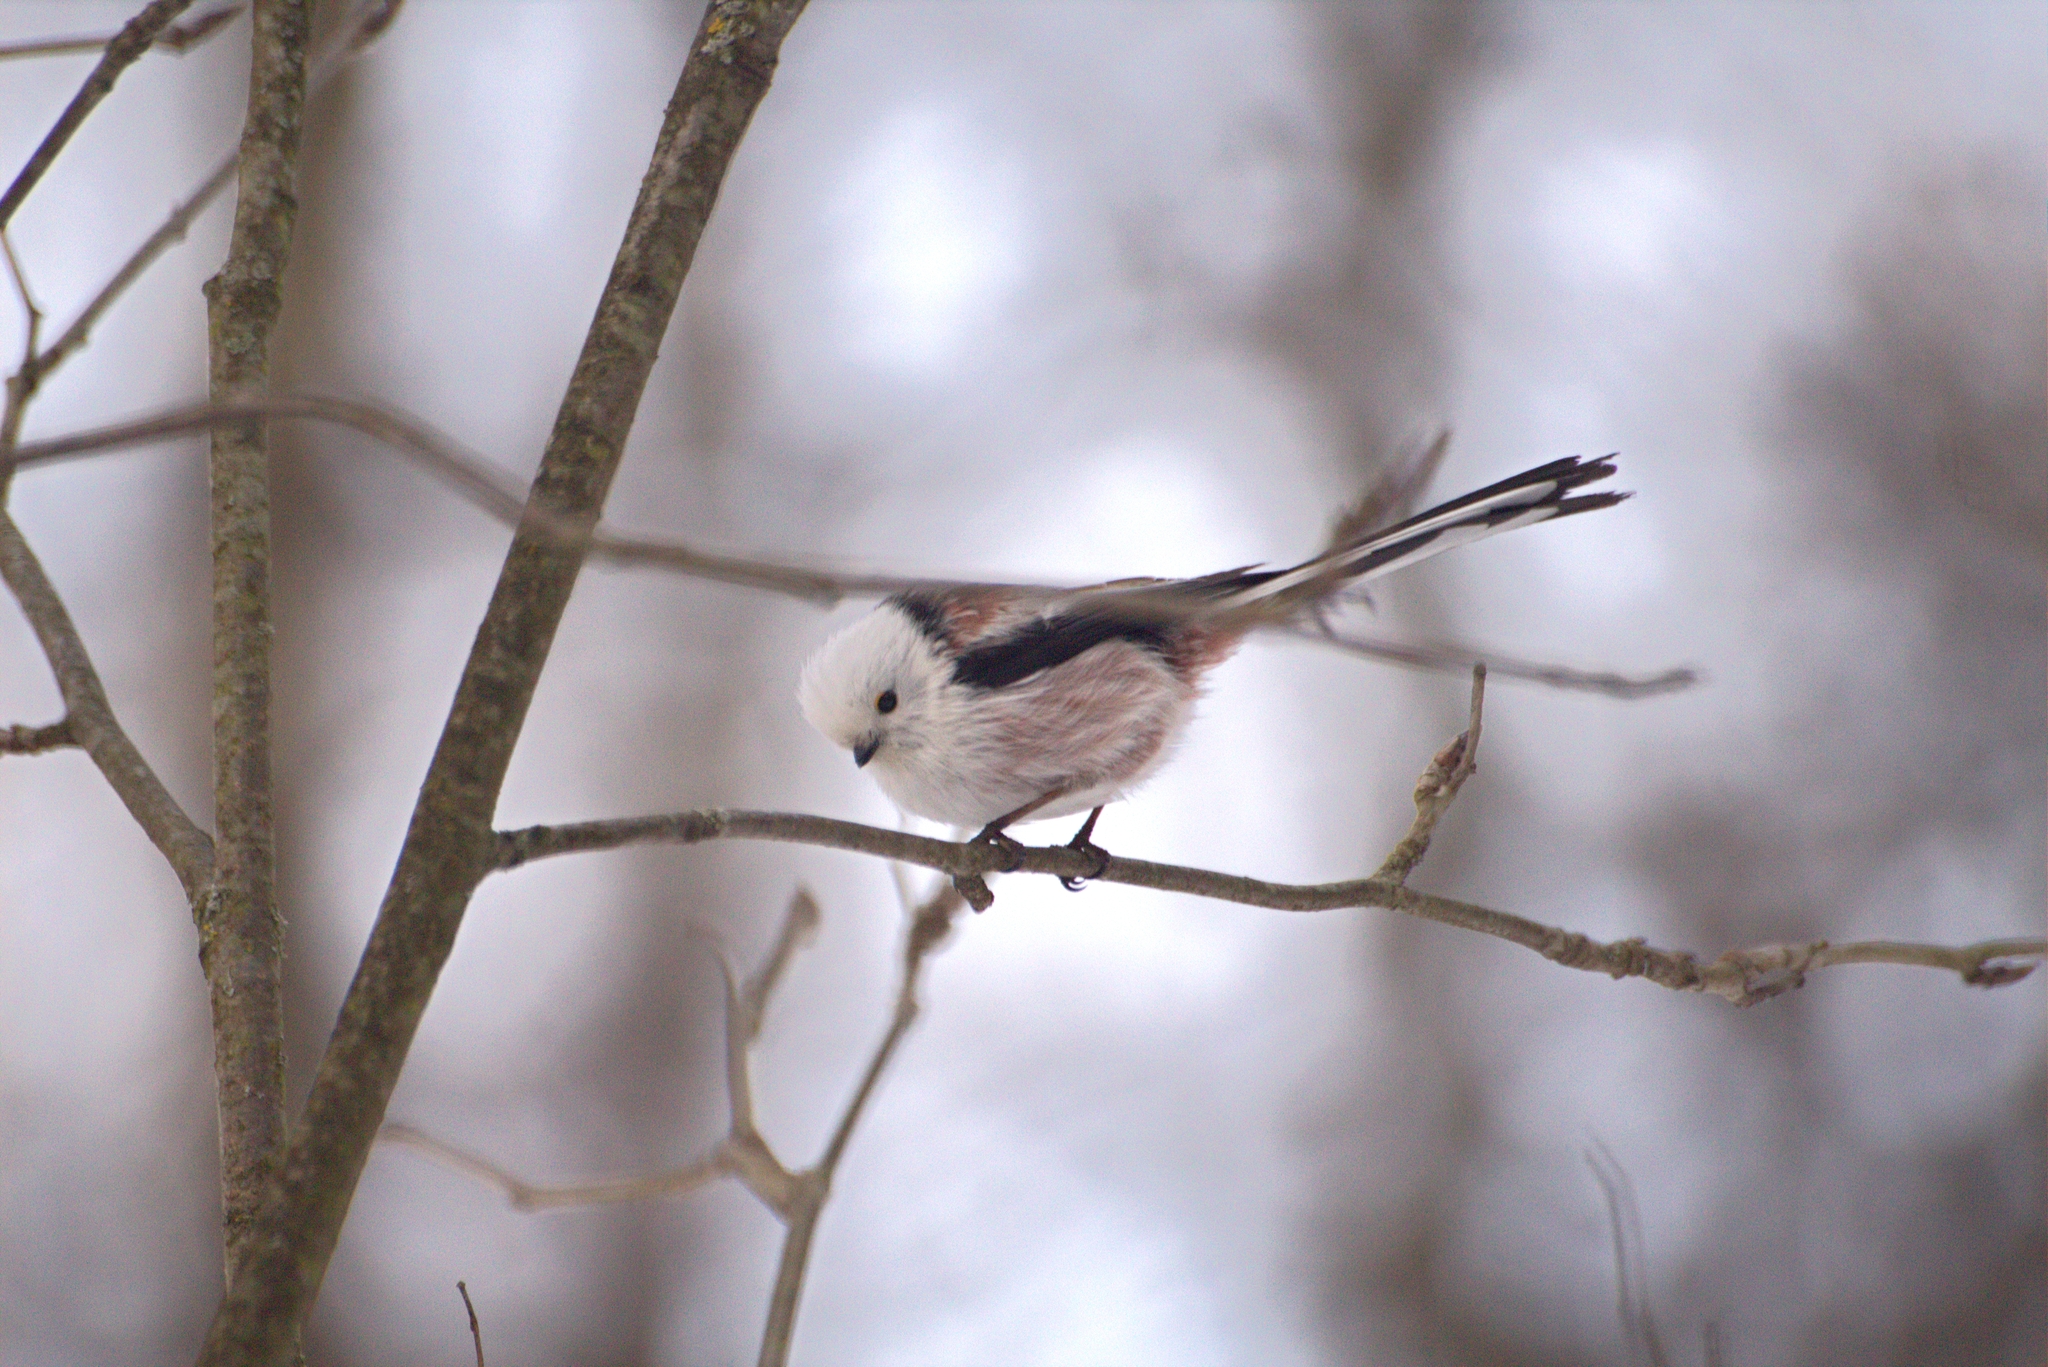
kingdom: Animalia
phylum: Chordata
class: Aves
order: Passeriformes
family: Aegithalidae
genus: Aegithalos
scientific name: Aegithalos caudatus
